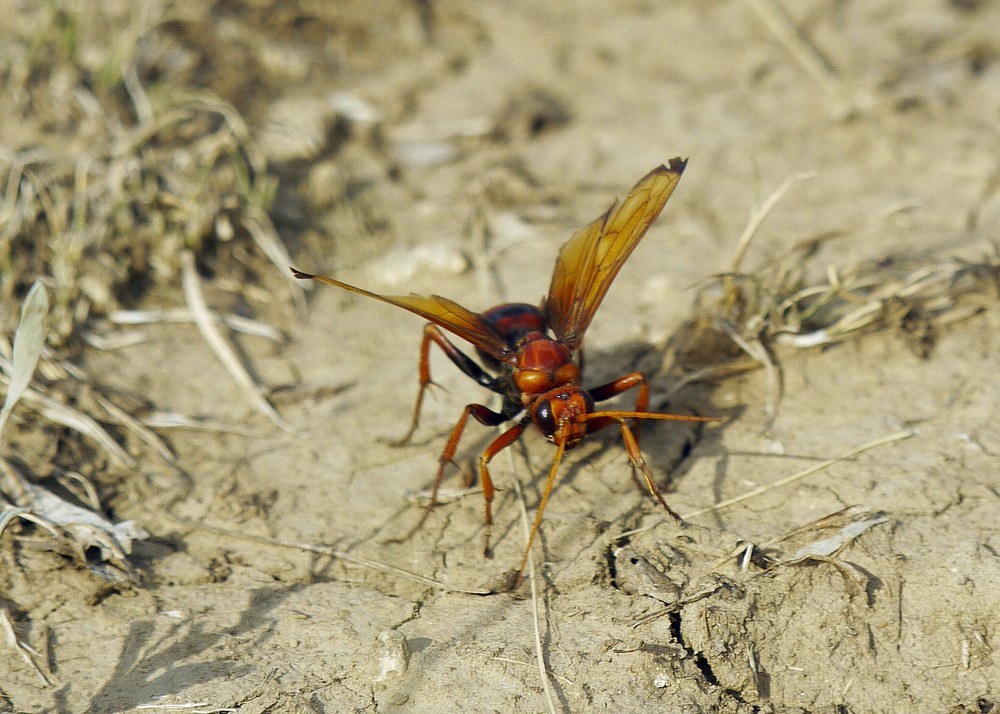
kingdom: Animalia
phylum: Arthropoda
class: Insecta
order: Hymenoptera
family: Pompilidae
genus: Cryptocheilus
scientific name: Cryptocheilus rubellus
